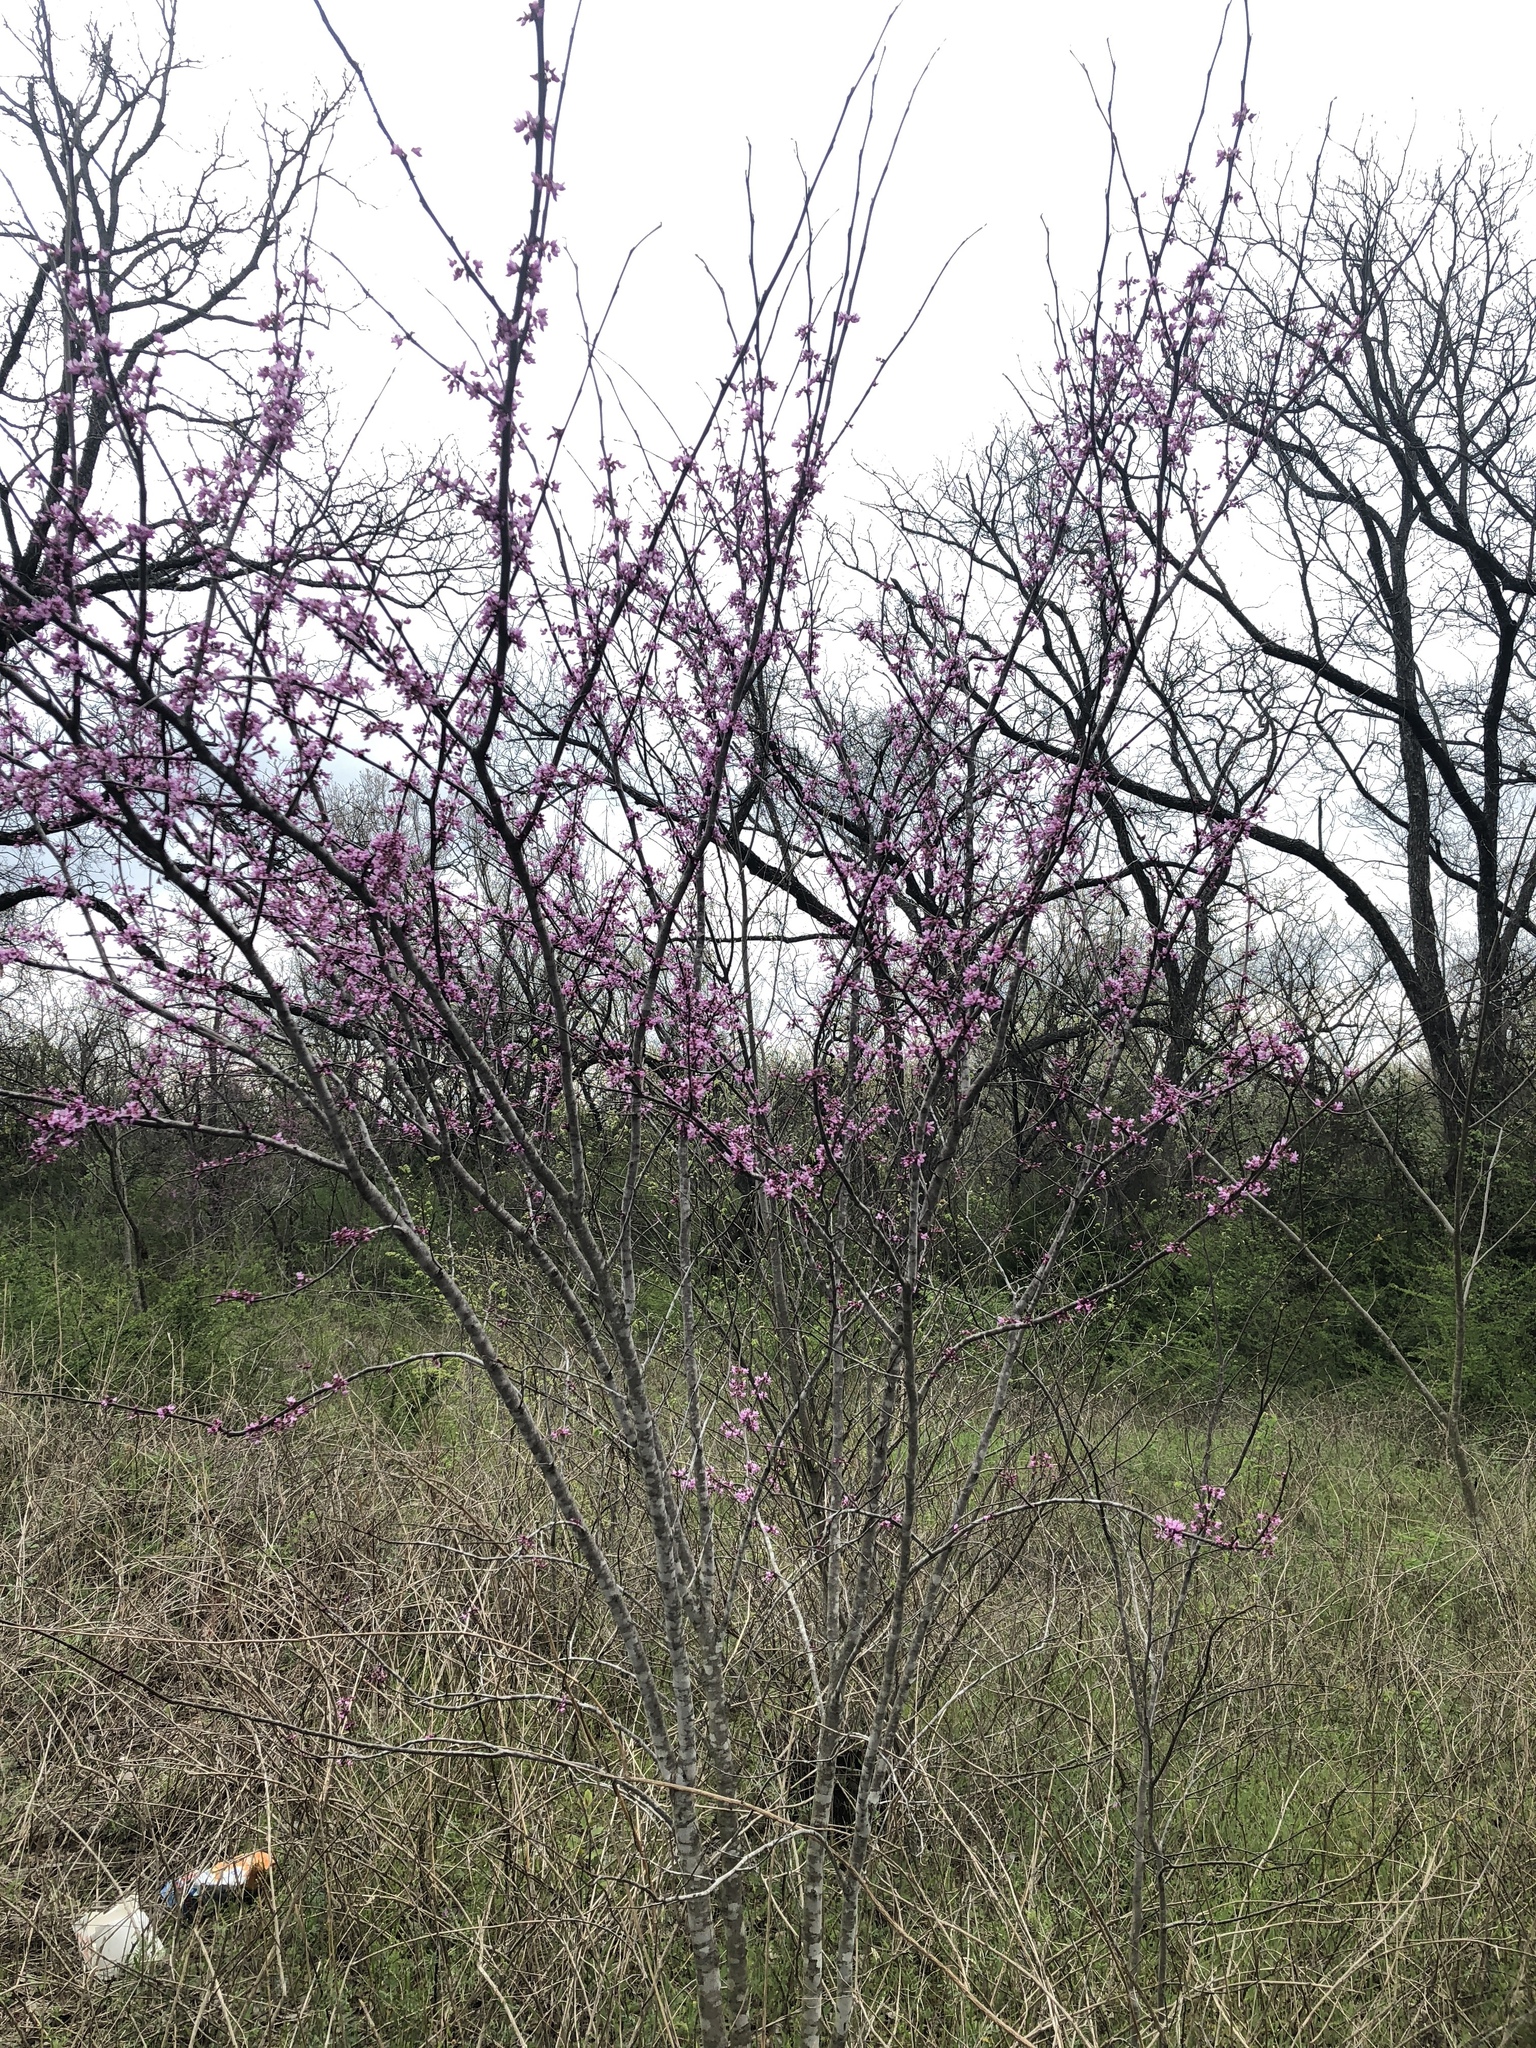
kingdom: Plantae
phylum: Tracheophyta
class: Magnoliopsida
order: Fabales
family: Fabaceae
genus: Cercis
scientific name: Cercis canadensis
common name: Eastern redbud
